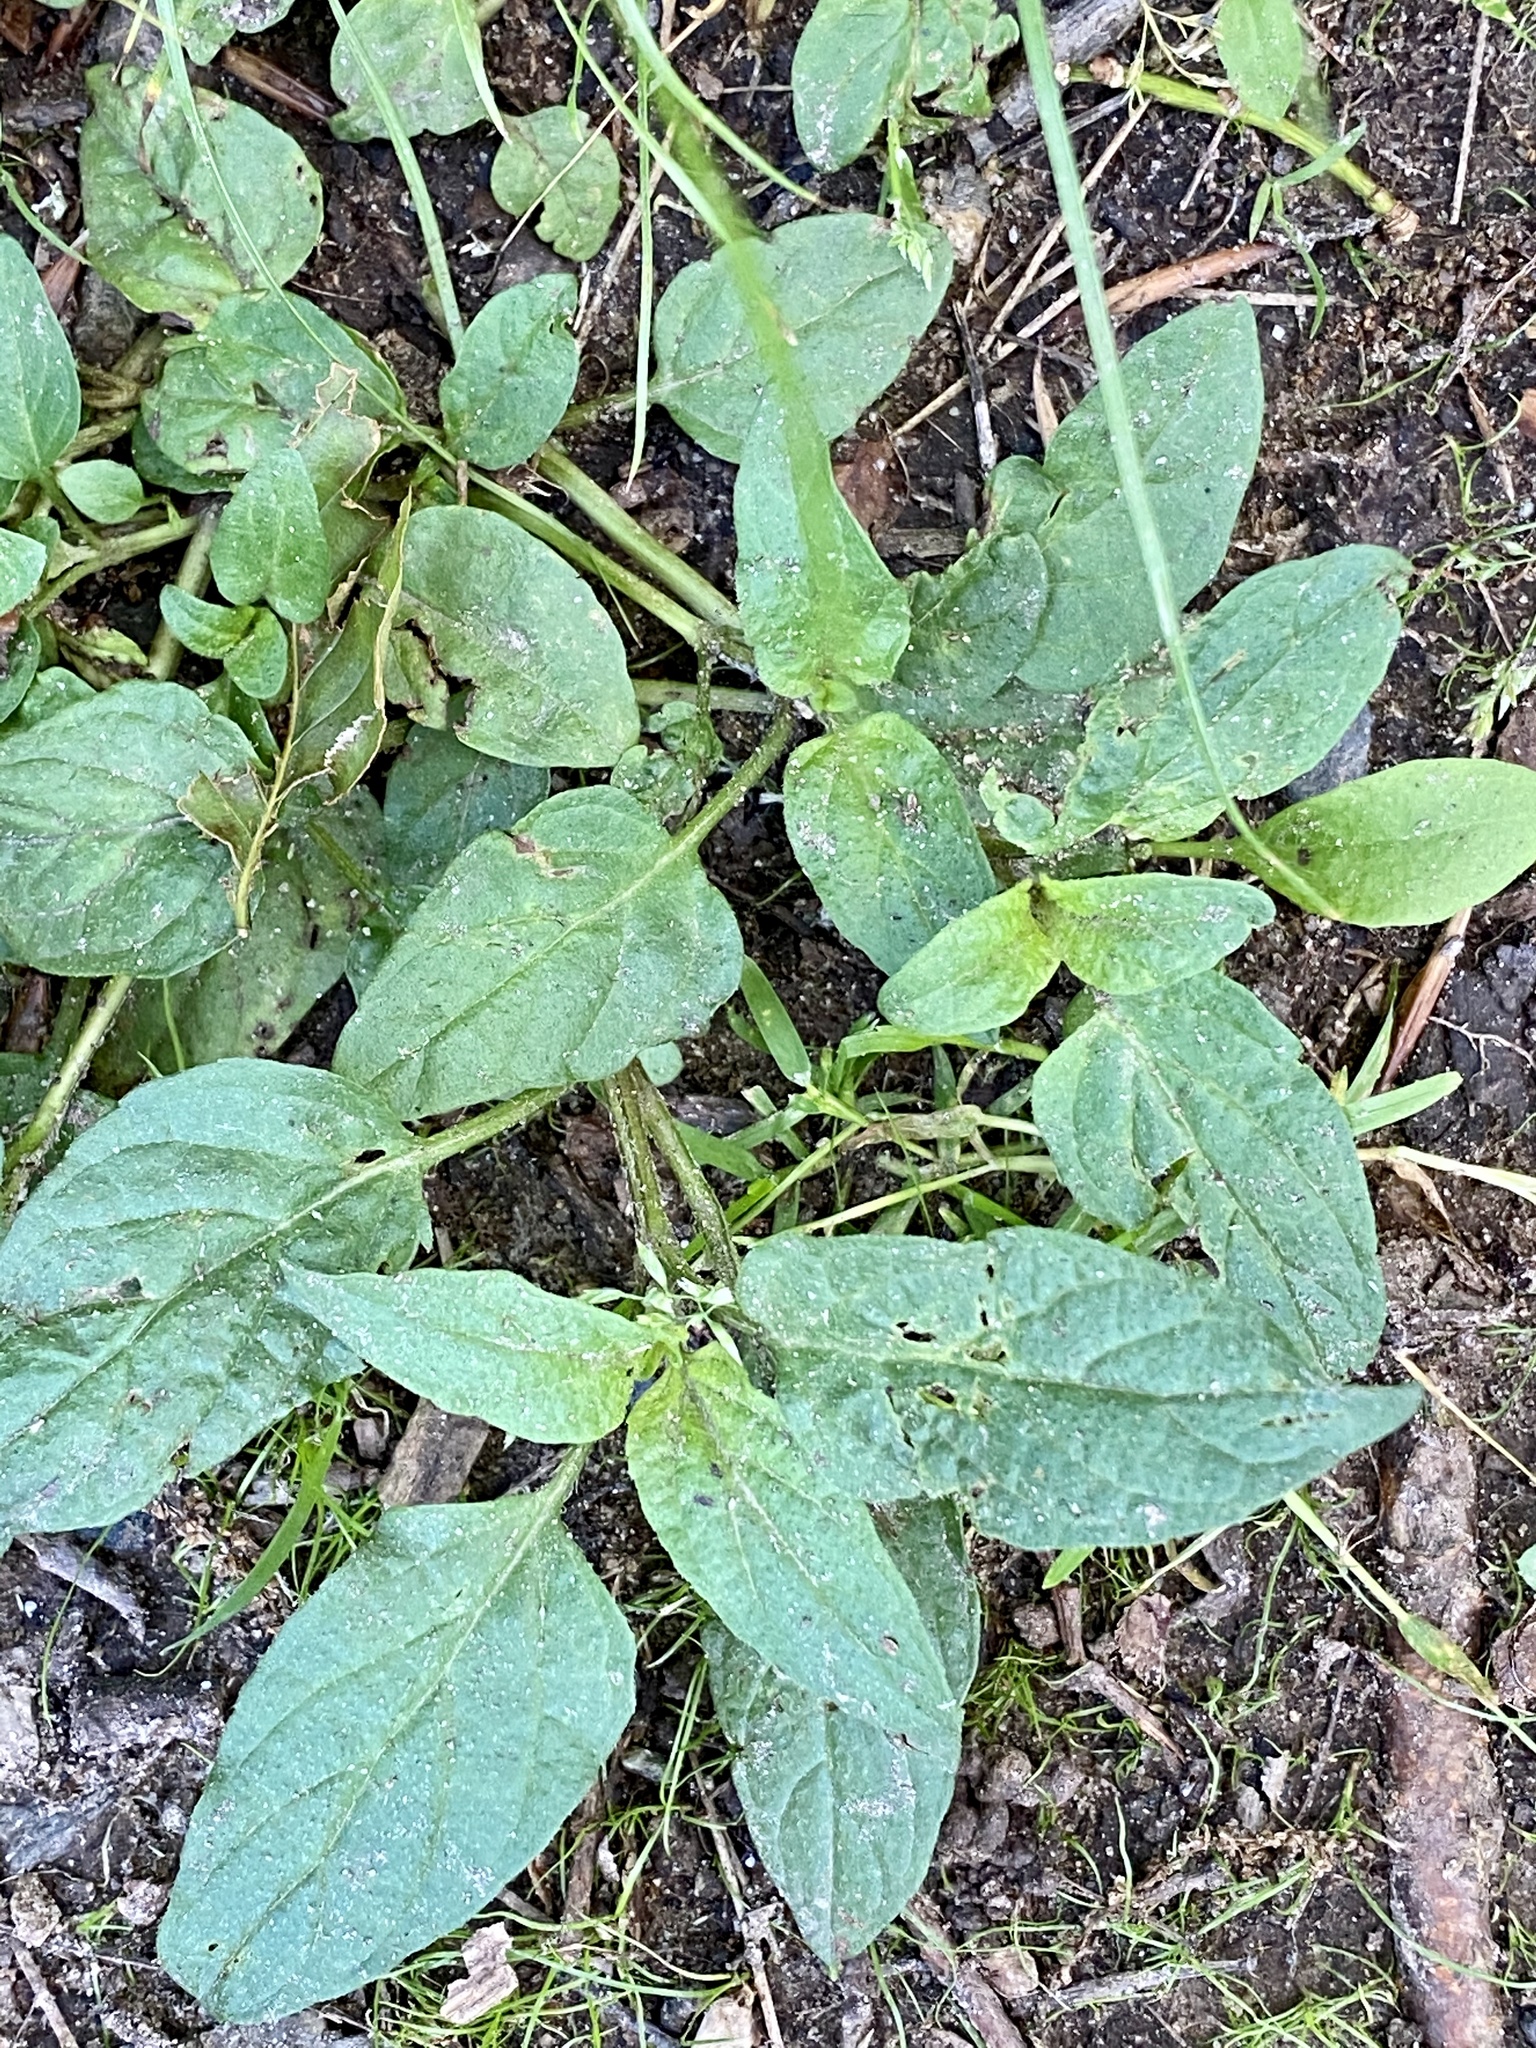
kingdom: Plantae
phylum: Tracheophyta
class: Magnoliopsida
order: Lamiales
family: Lamiaceae
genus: Prunella
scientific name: Prunella vulgaris
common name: Heal-all
